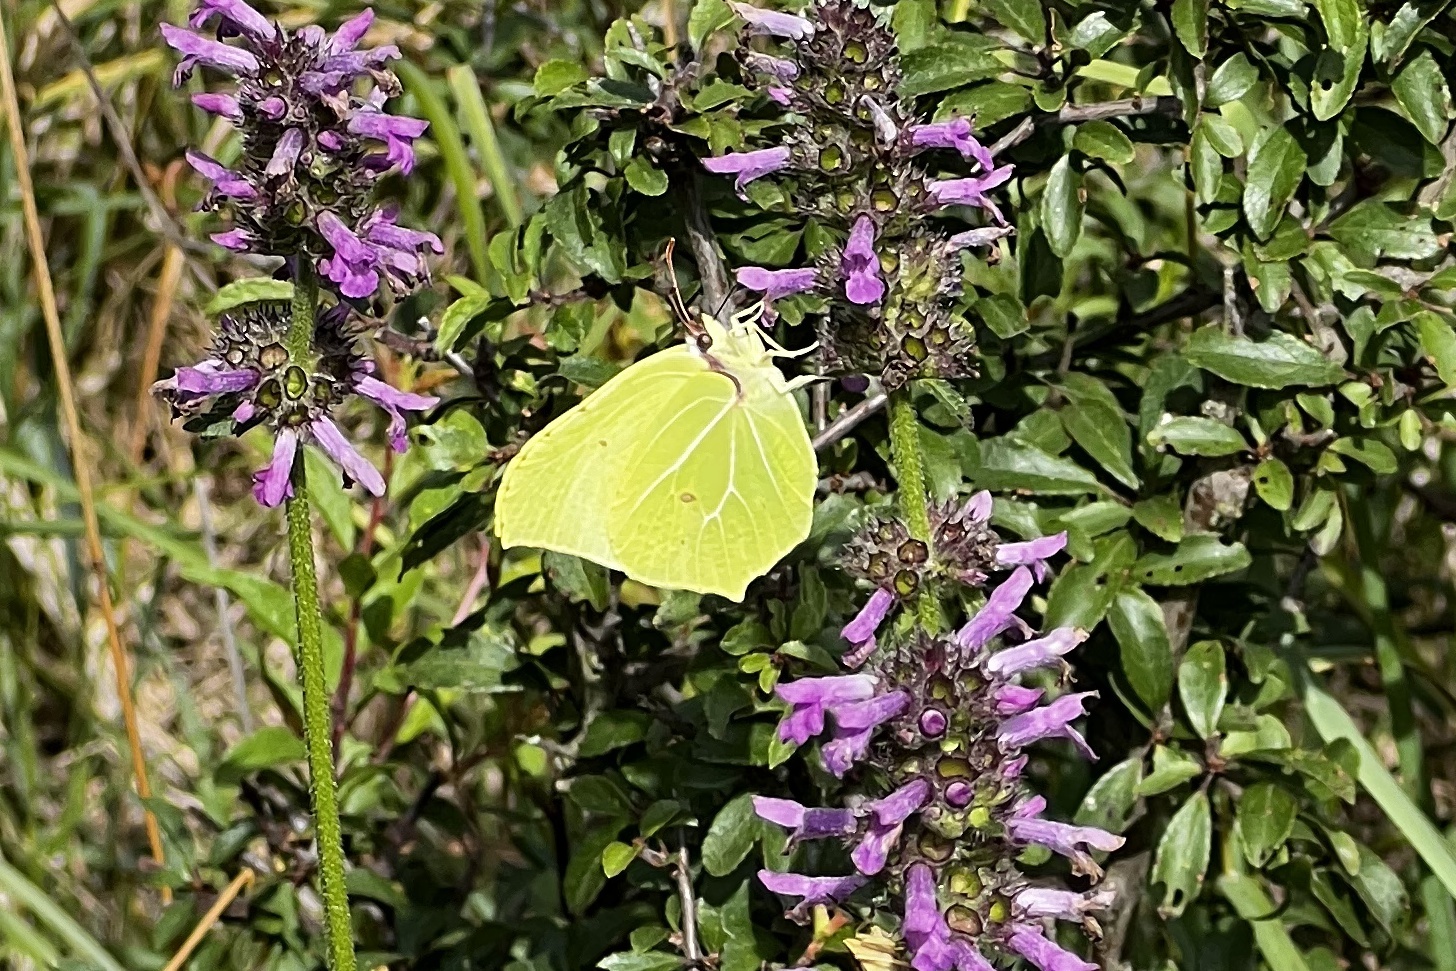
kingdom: Animalia
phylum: Arthropoda
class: Insecta
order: Lepidoptera
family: Pieridae
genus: Gonepteryx
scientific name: Gonepteryx rhamni
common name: Brimstone
